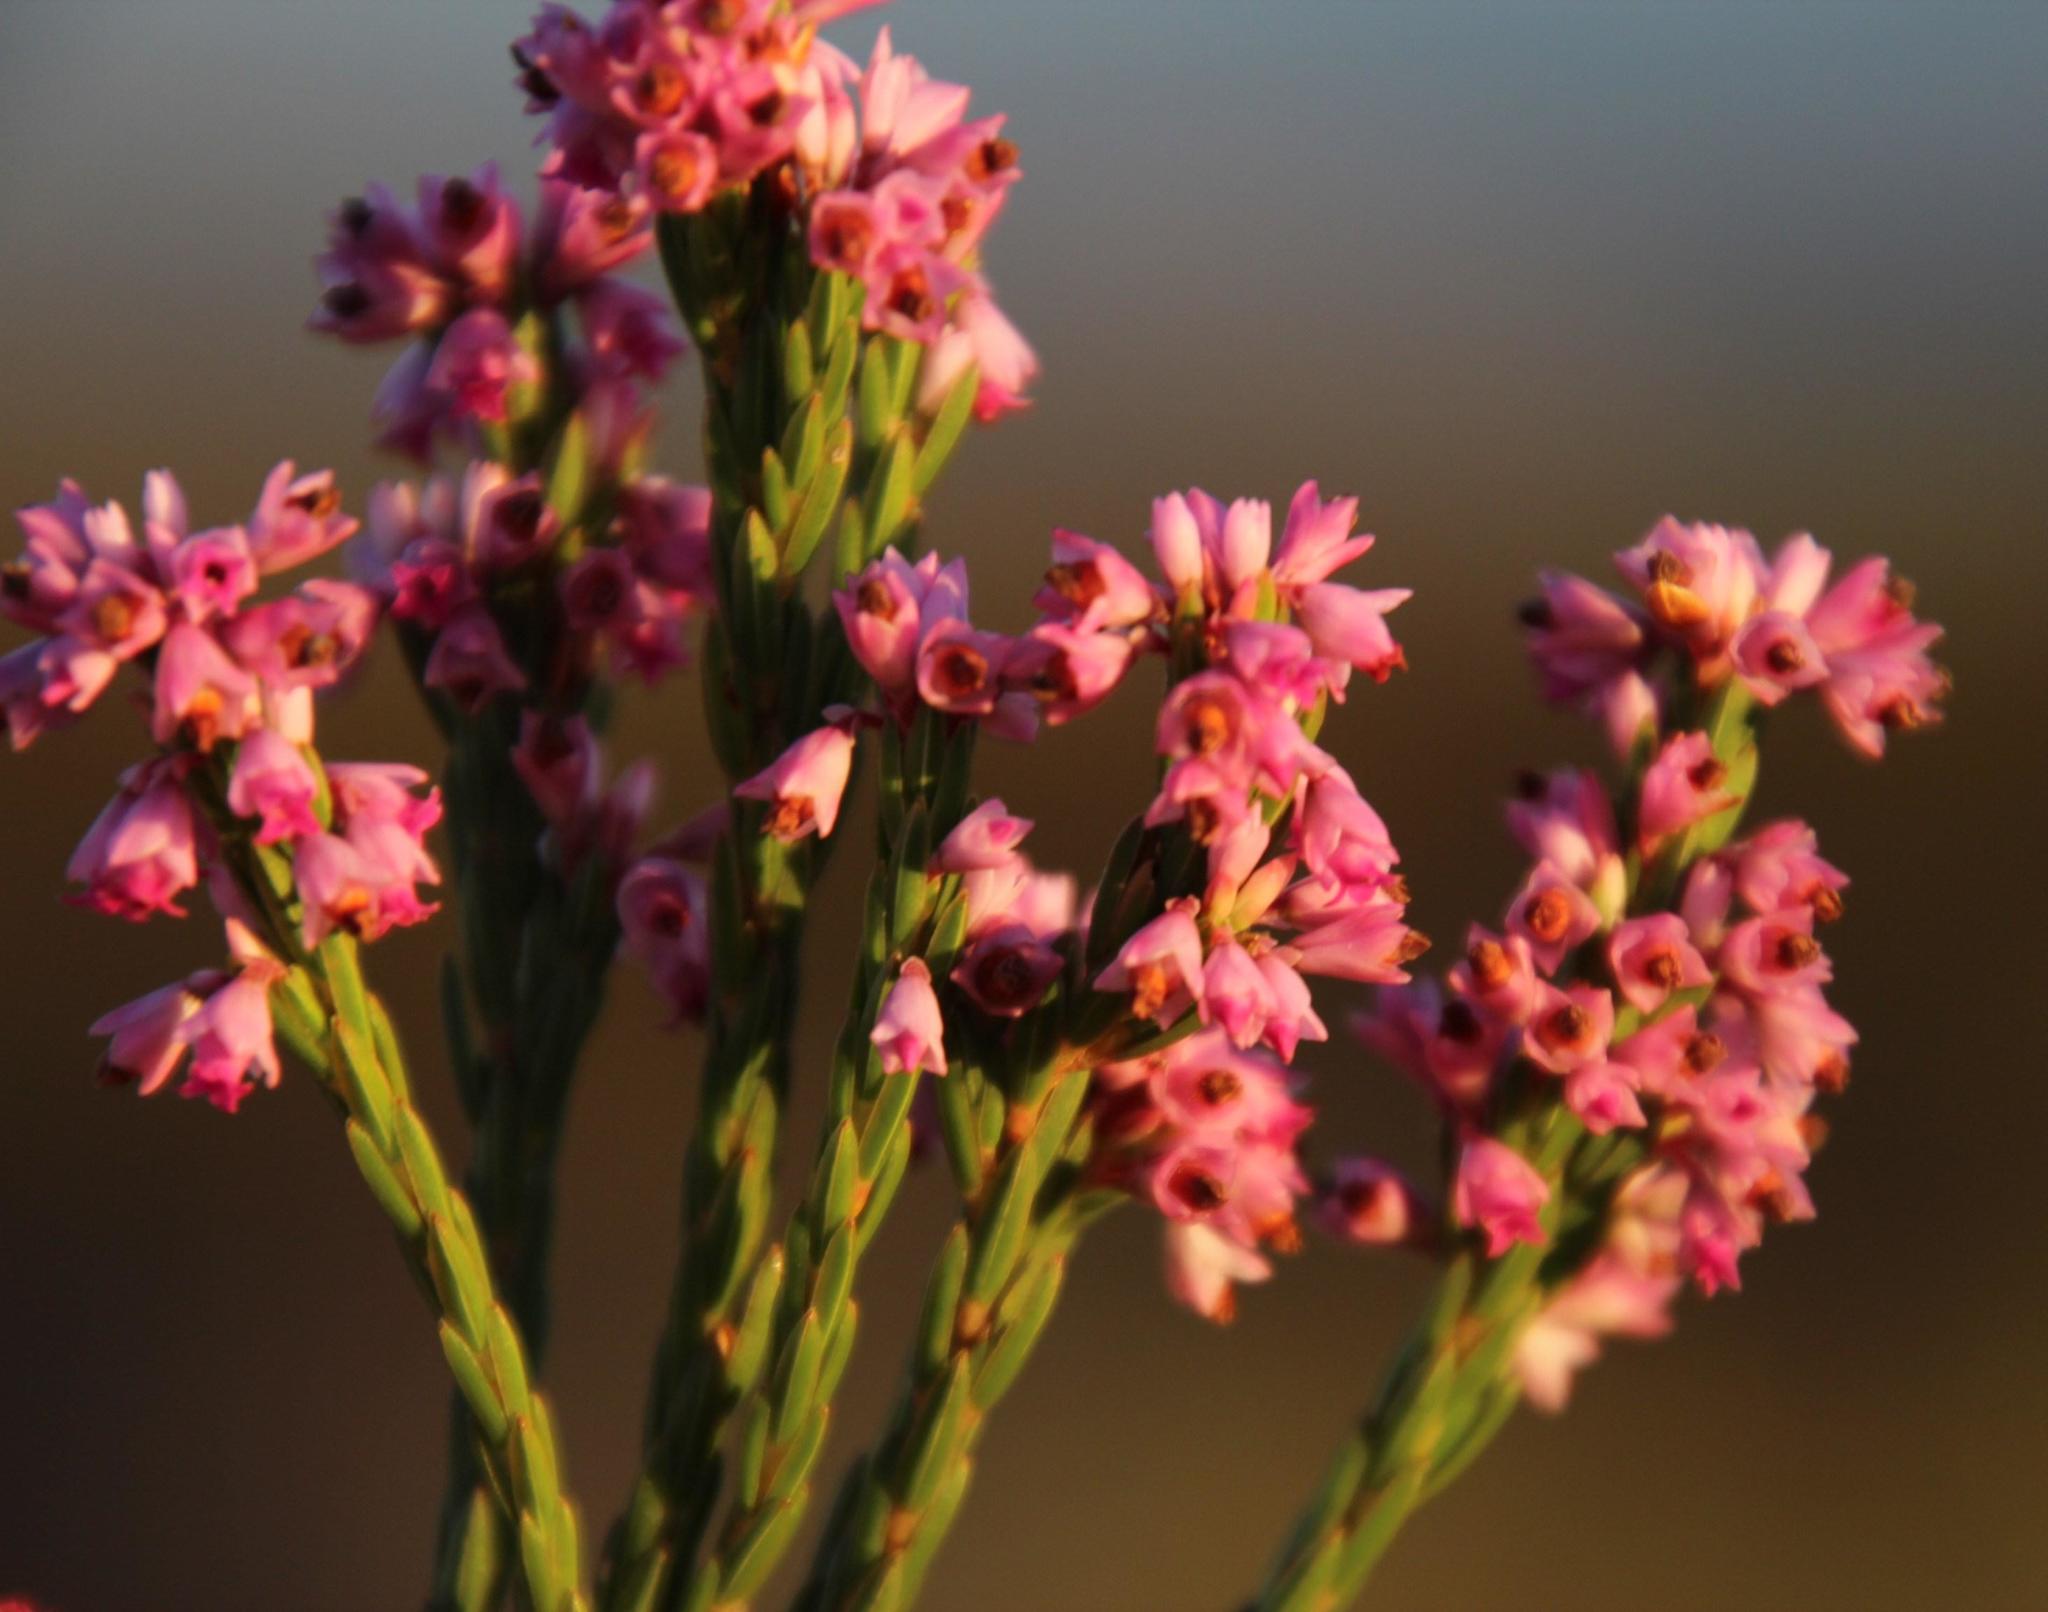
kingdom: Plantae
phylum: Tracheophyta
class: Magnoliopsida
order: Ericales
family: Ericaceae
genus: Erica
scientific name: Erica corifolia
